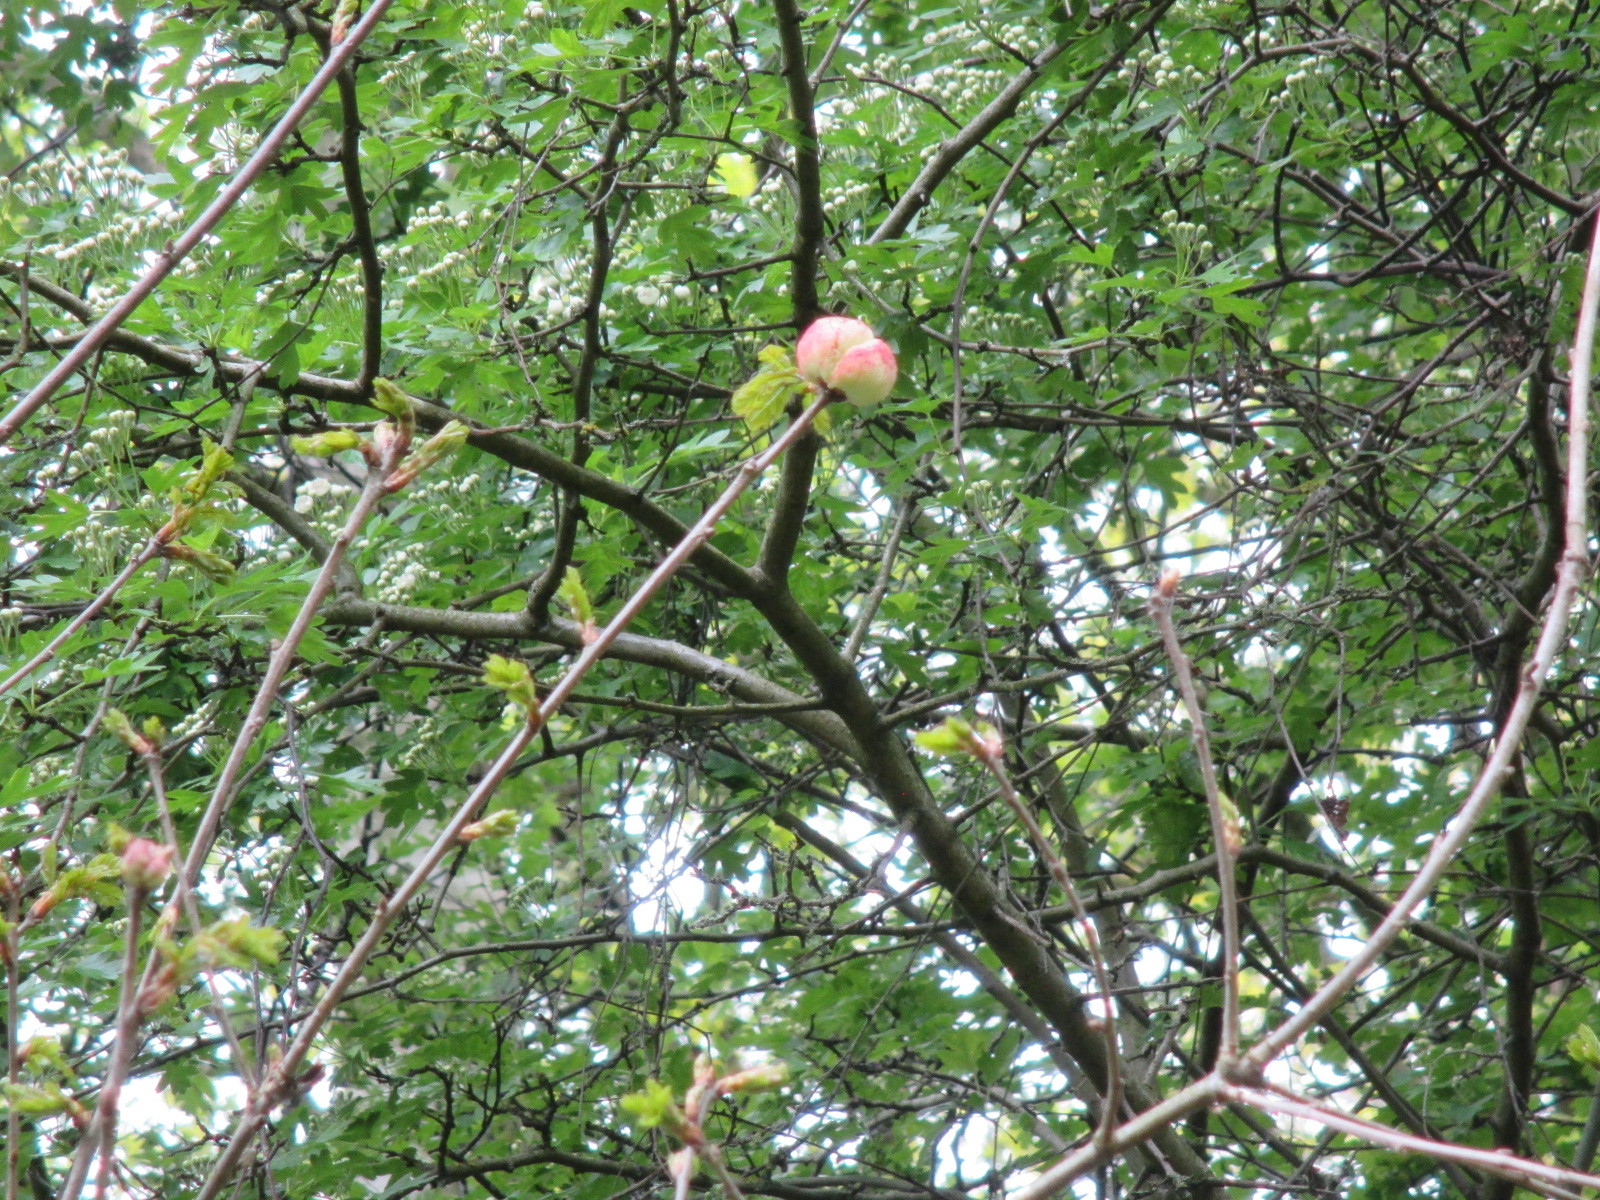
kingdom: Animalia
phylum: Arthropoda
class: Insecta
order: Hymenoptera
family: Cynipidae
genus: Biorhiza
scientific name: Biorhiza pallida
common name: Oak apple
